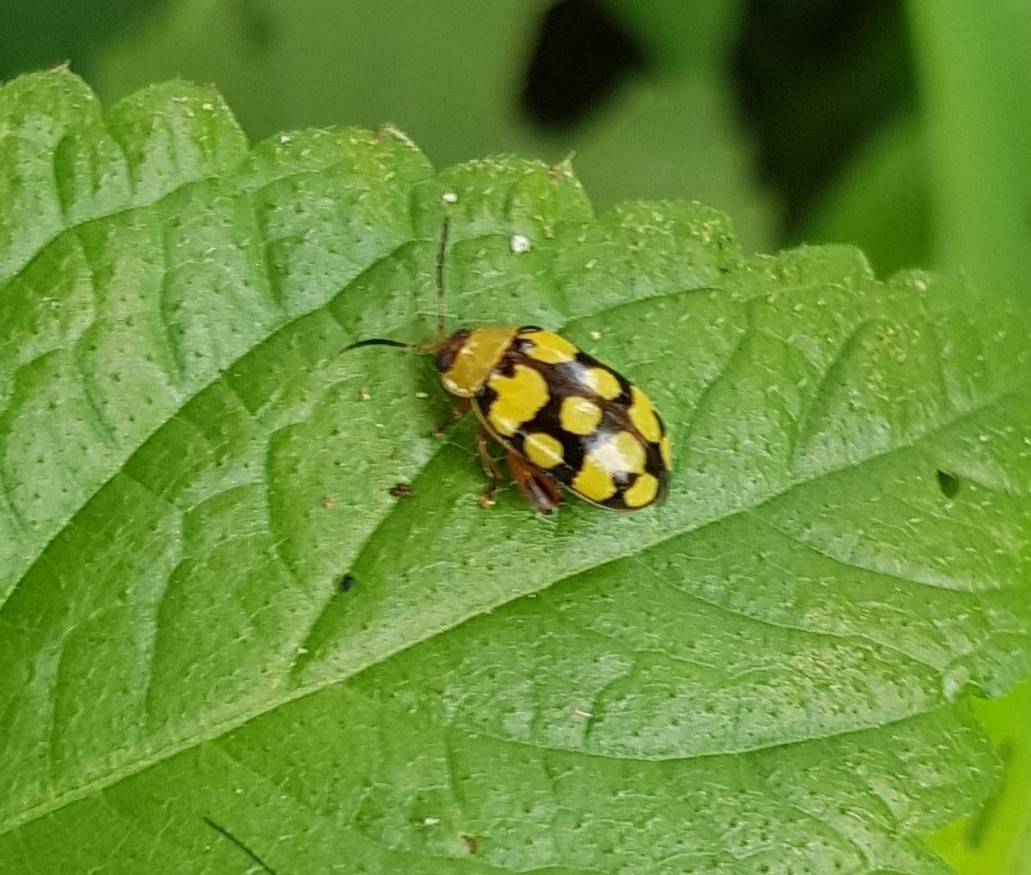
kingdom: Animalia
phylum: Arthropoda
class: Insecta
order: Coleoptera
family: Chrysomelidae
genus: Alagoasa
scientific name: Alagoasa
